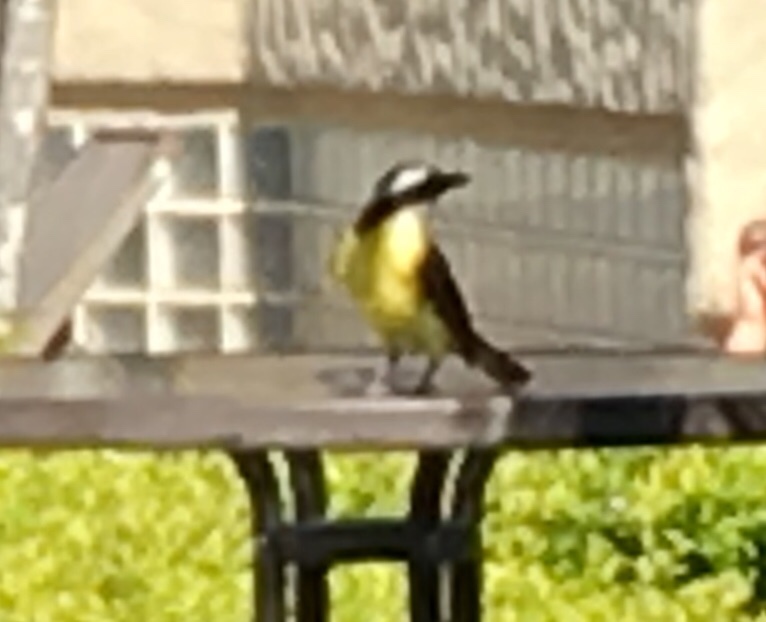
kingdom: Animalia
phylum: Chordata
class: Aves
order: Passeriformes
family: Tyrannidae
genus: Myiozetetes
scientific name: Myiozetetes similis
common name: Social flycatcher
